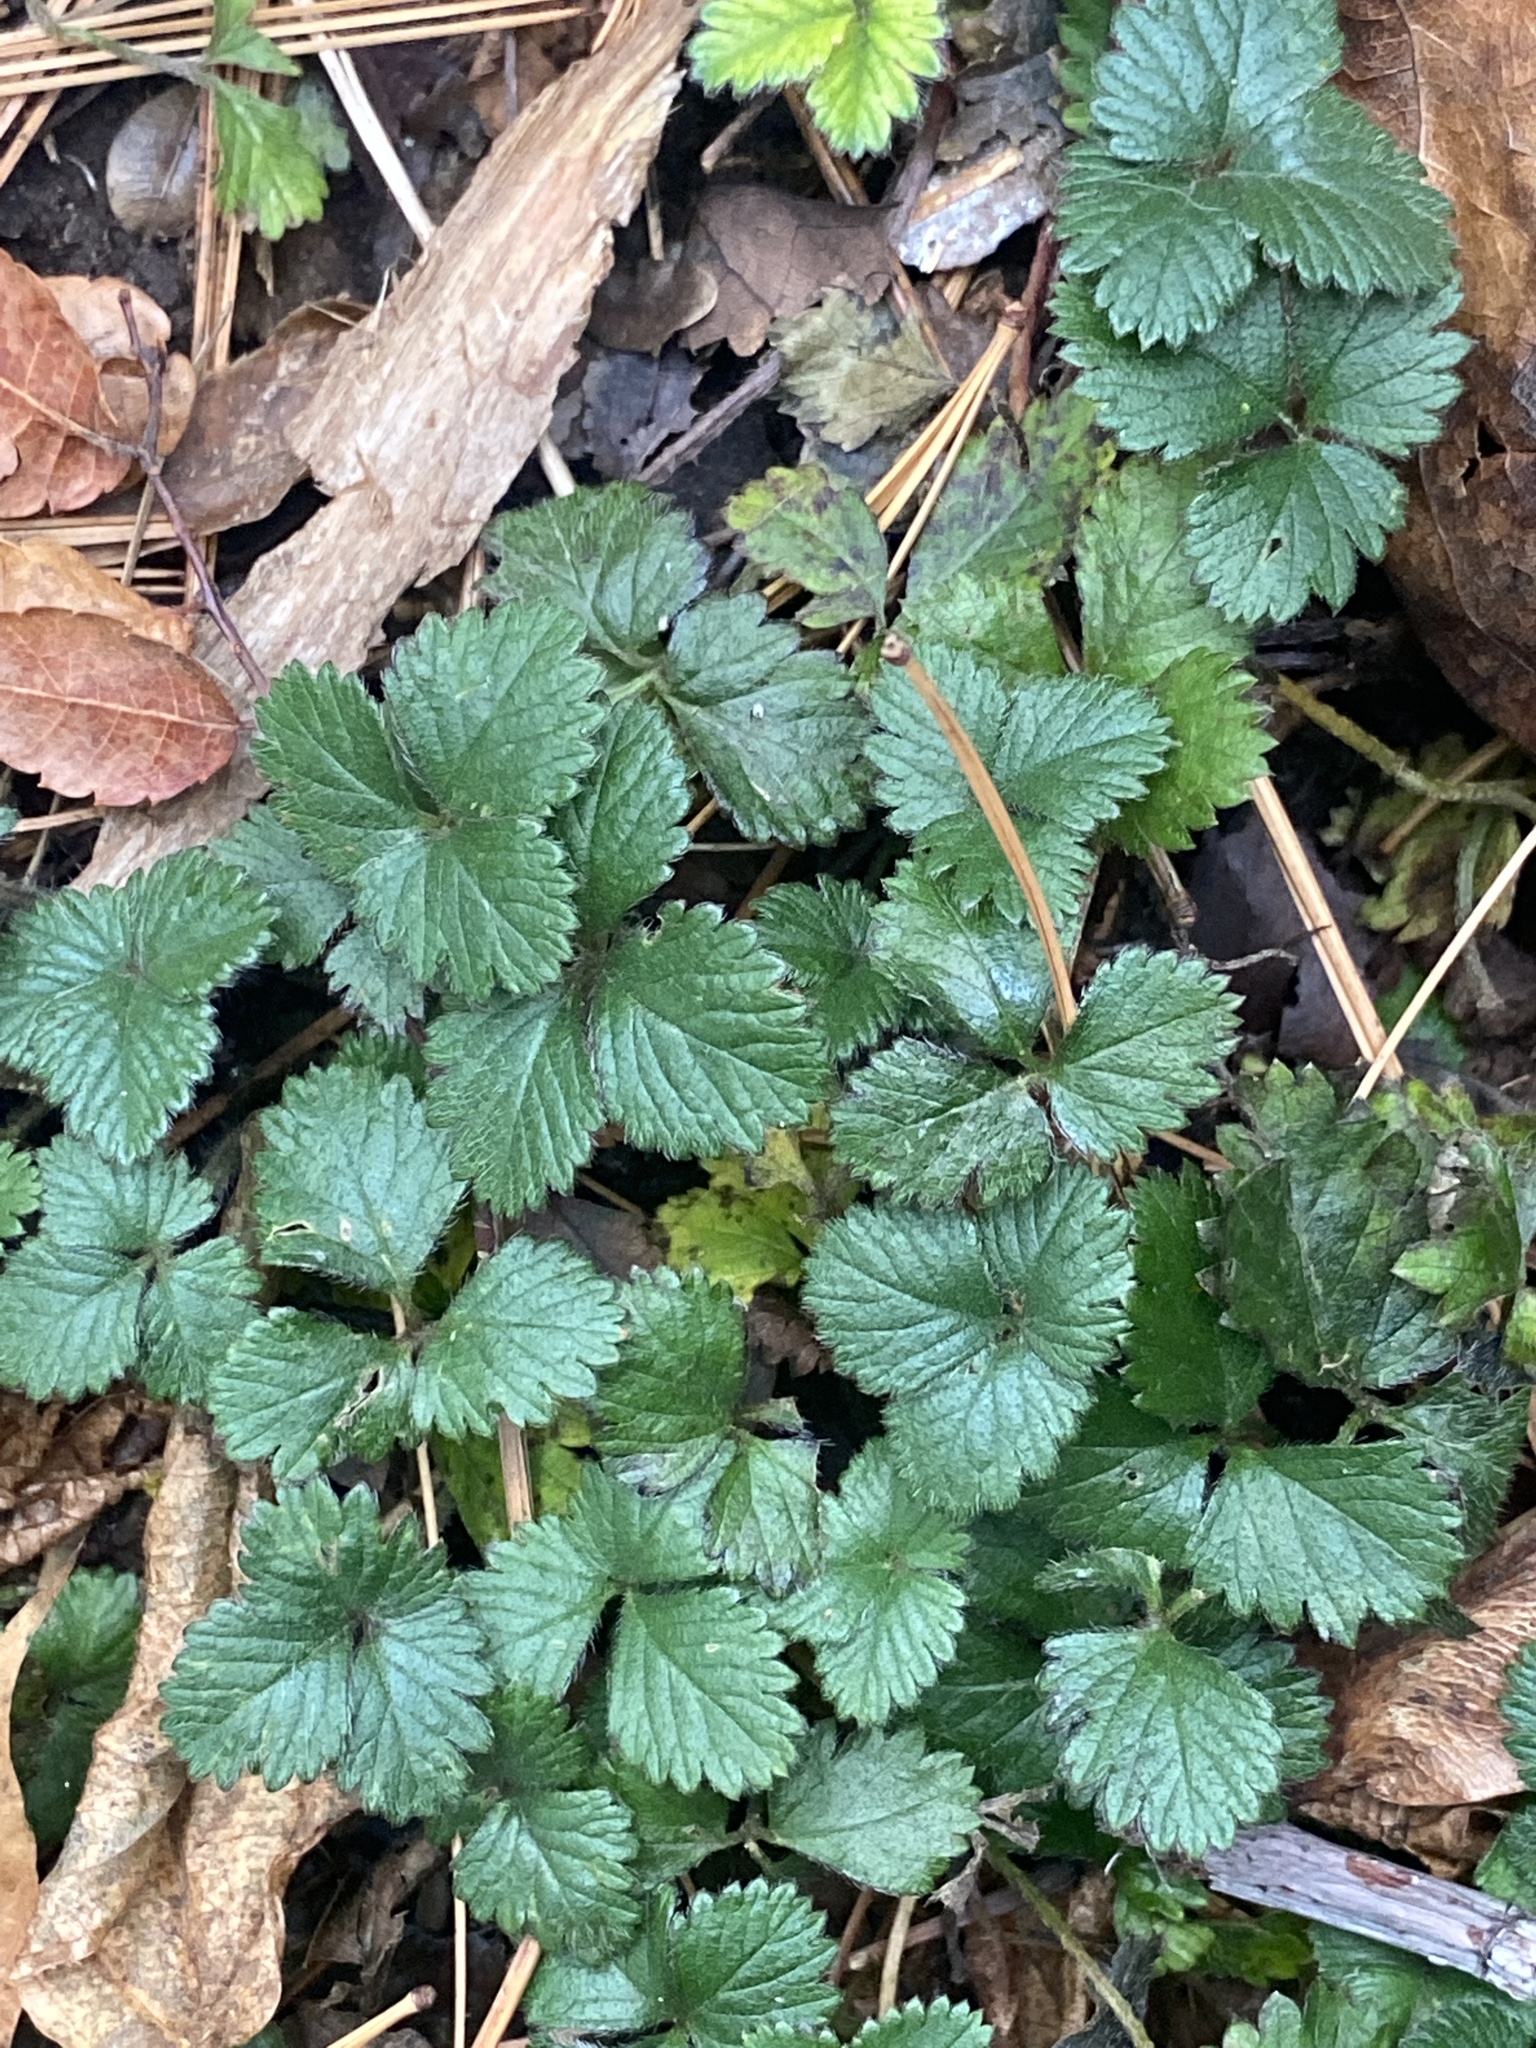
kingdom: Plantae
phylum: Tracheophyta
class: Magnoliopsida
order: Rosales
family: Rosaceae
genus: Potentilla
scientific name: Potentilla indica
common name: Yellow-flowered strawberry
